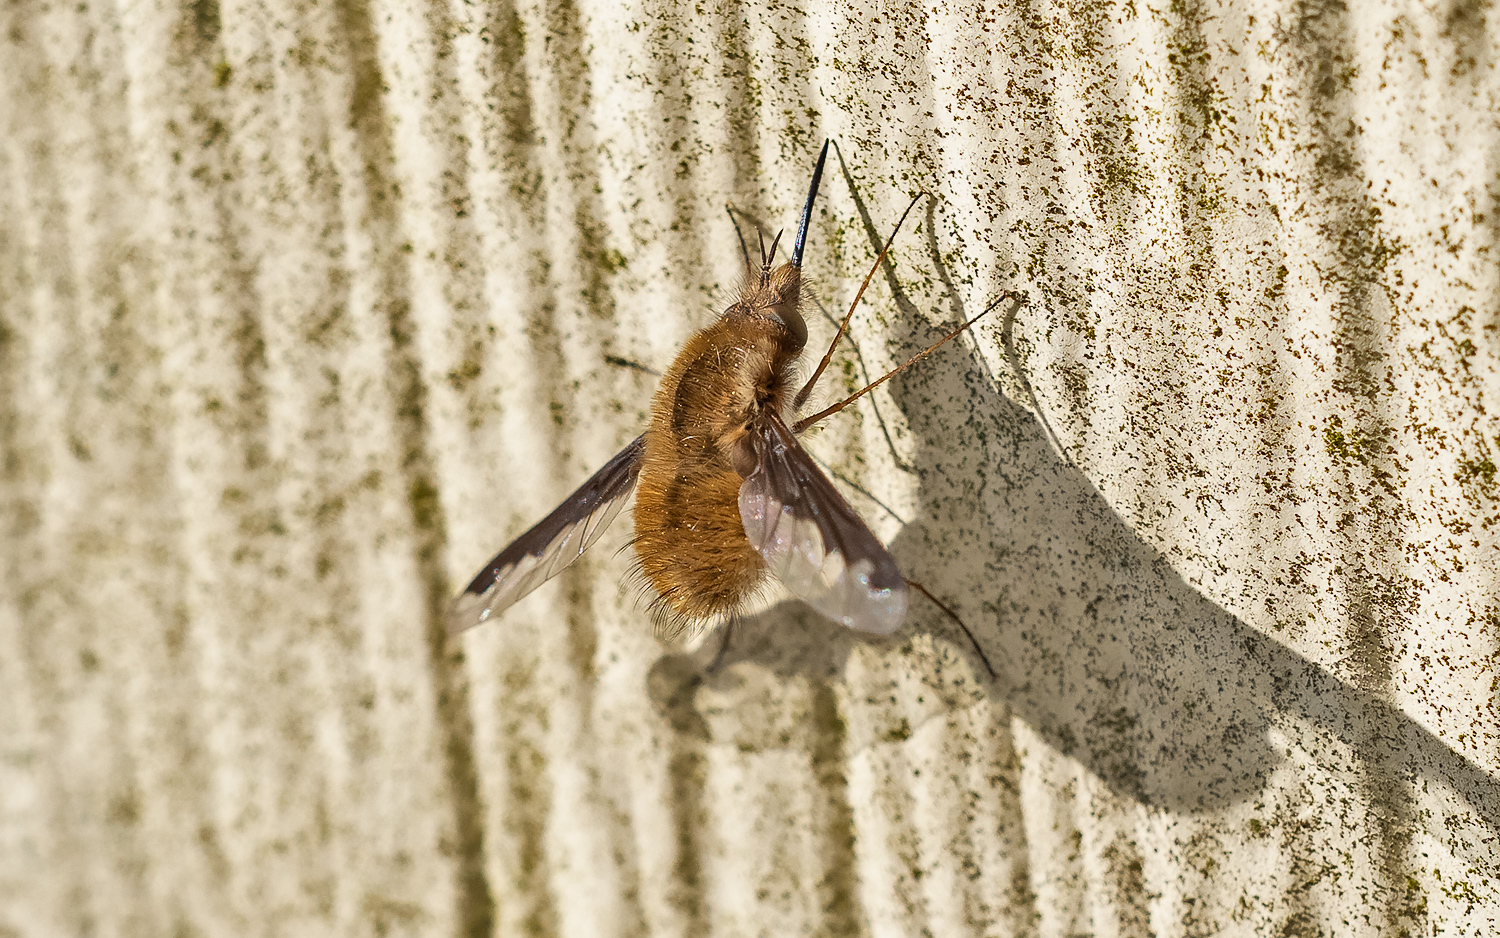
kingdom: Animalia
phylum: Arthropoda
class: Insecta
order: Diptera
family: Bombyliidae
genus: Bombylius
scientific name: Bombylius major
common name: Bee fly
